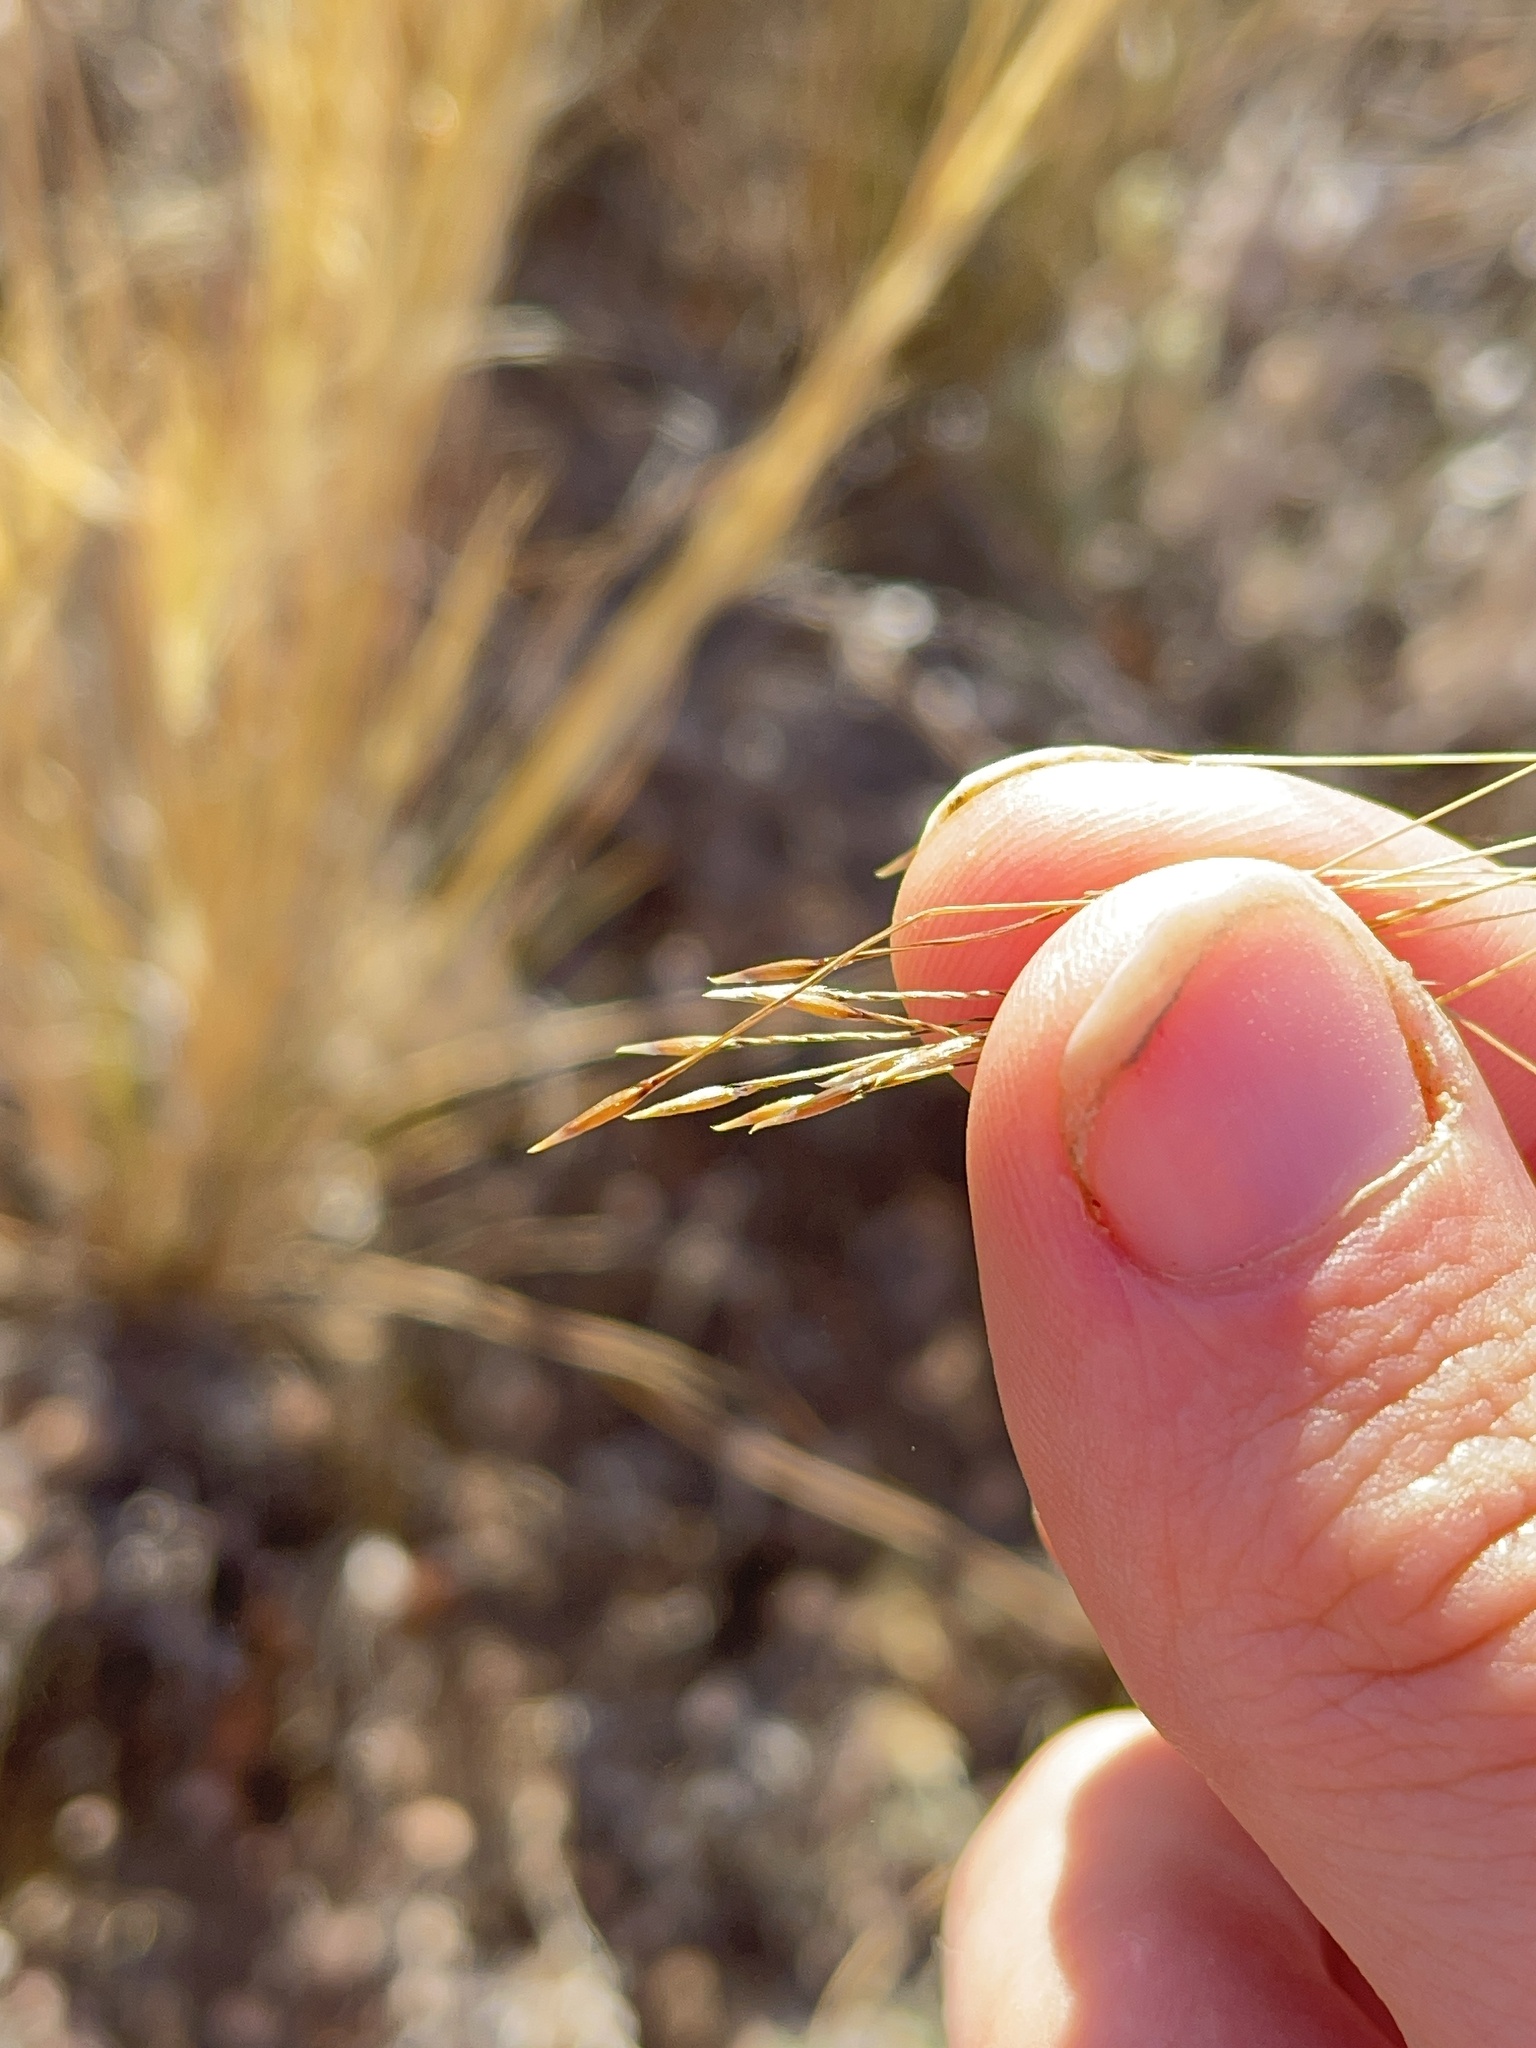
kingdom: Plantae
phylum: Tracheophyta
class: Liliopsida
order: Poales
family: Poaceae
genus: Austrostipa
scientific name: Austrostipa nitida
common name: Balcarra grass
